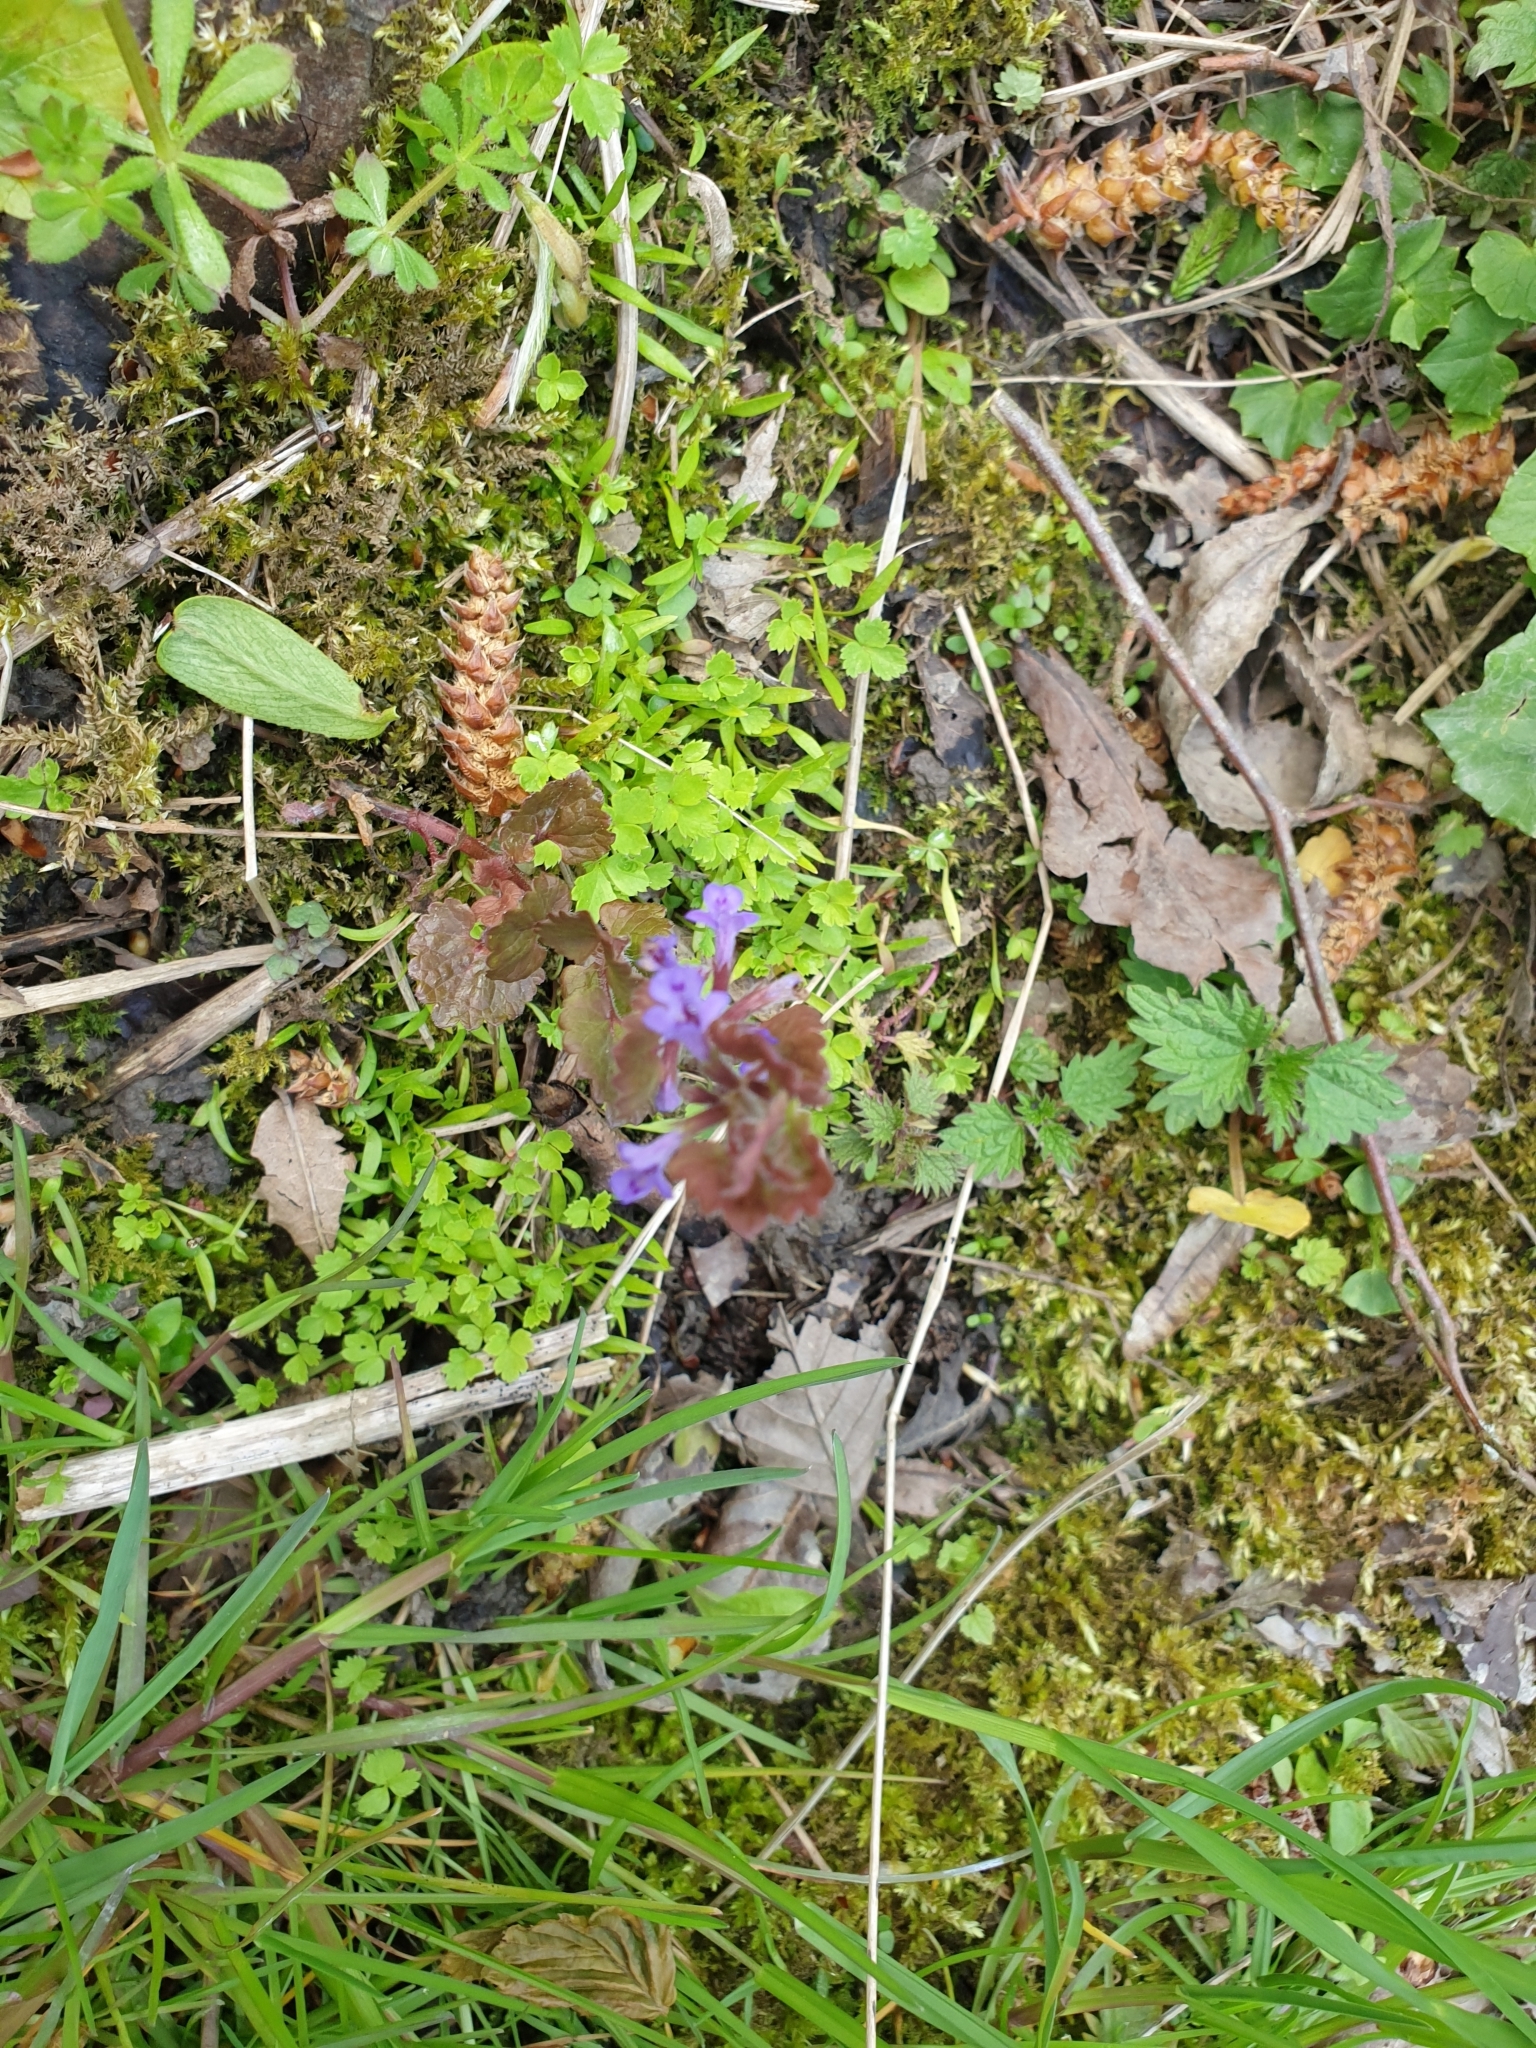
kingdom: Plantae
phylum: Tracheophyta
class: Magnoliopsida
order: Lamiales
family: Lamiaceae
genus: Glechoma
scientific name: Glechoma hederacea
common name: Ground ivy
